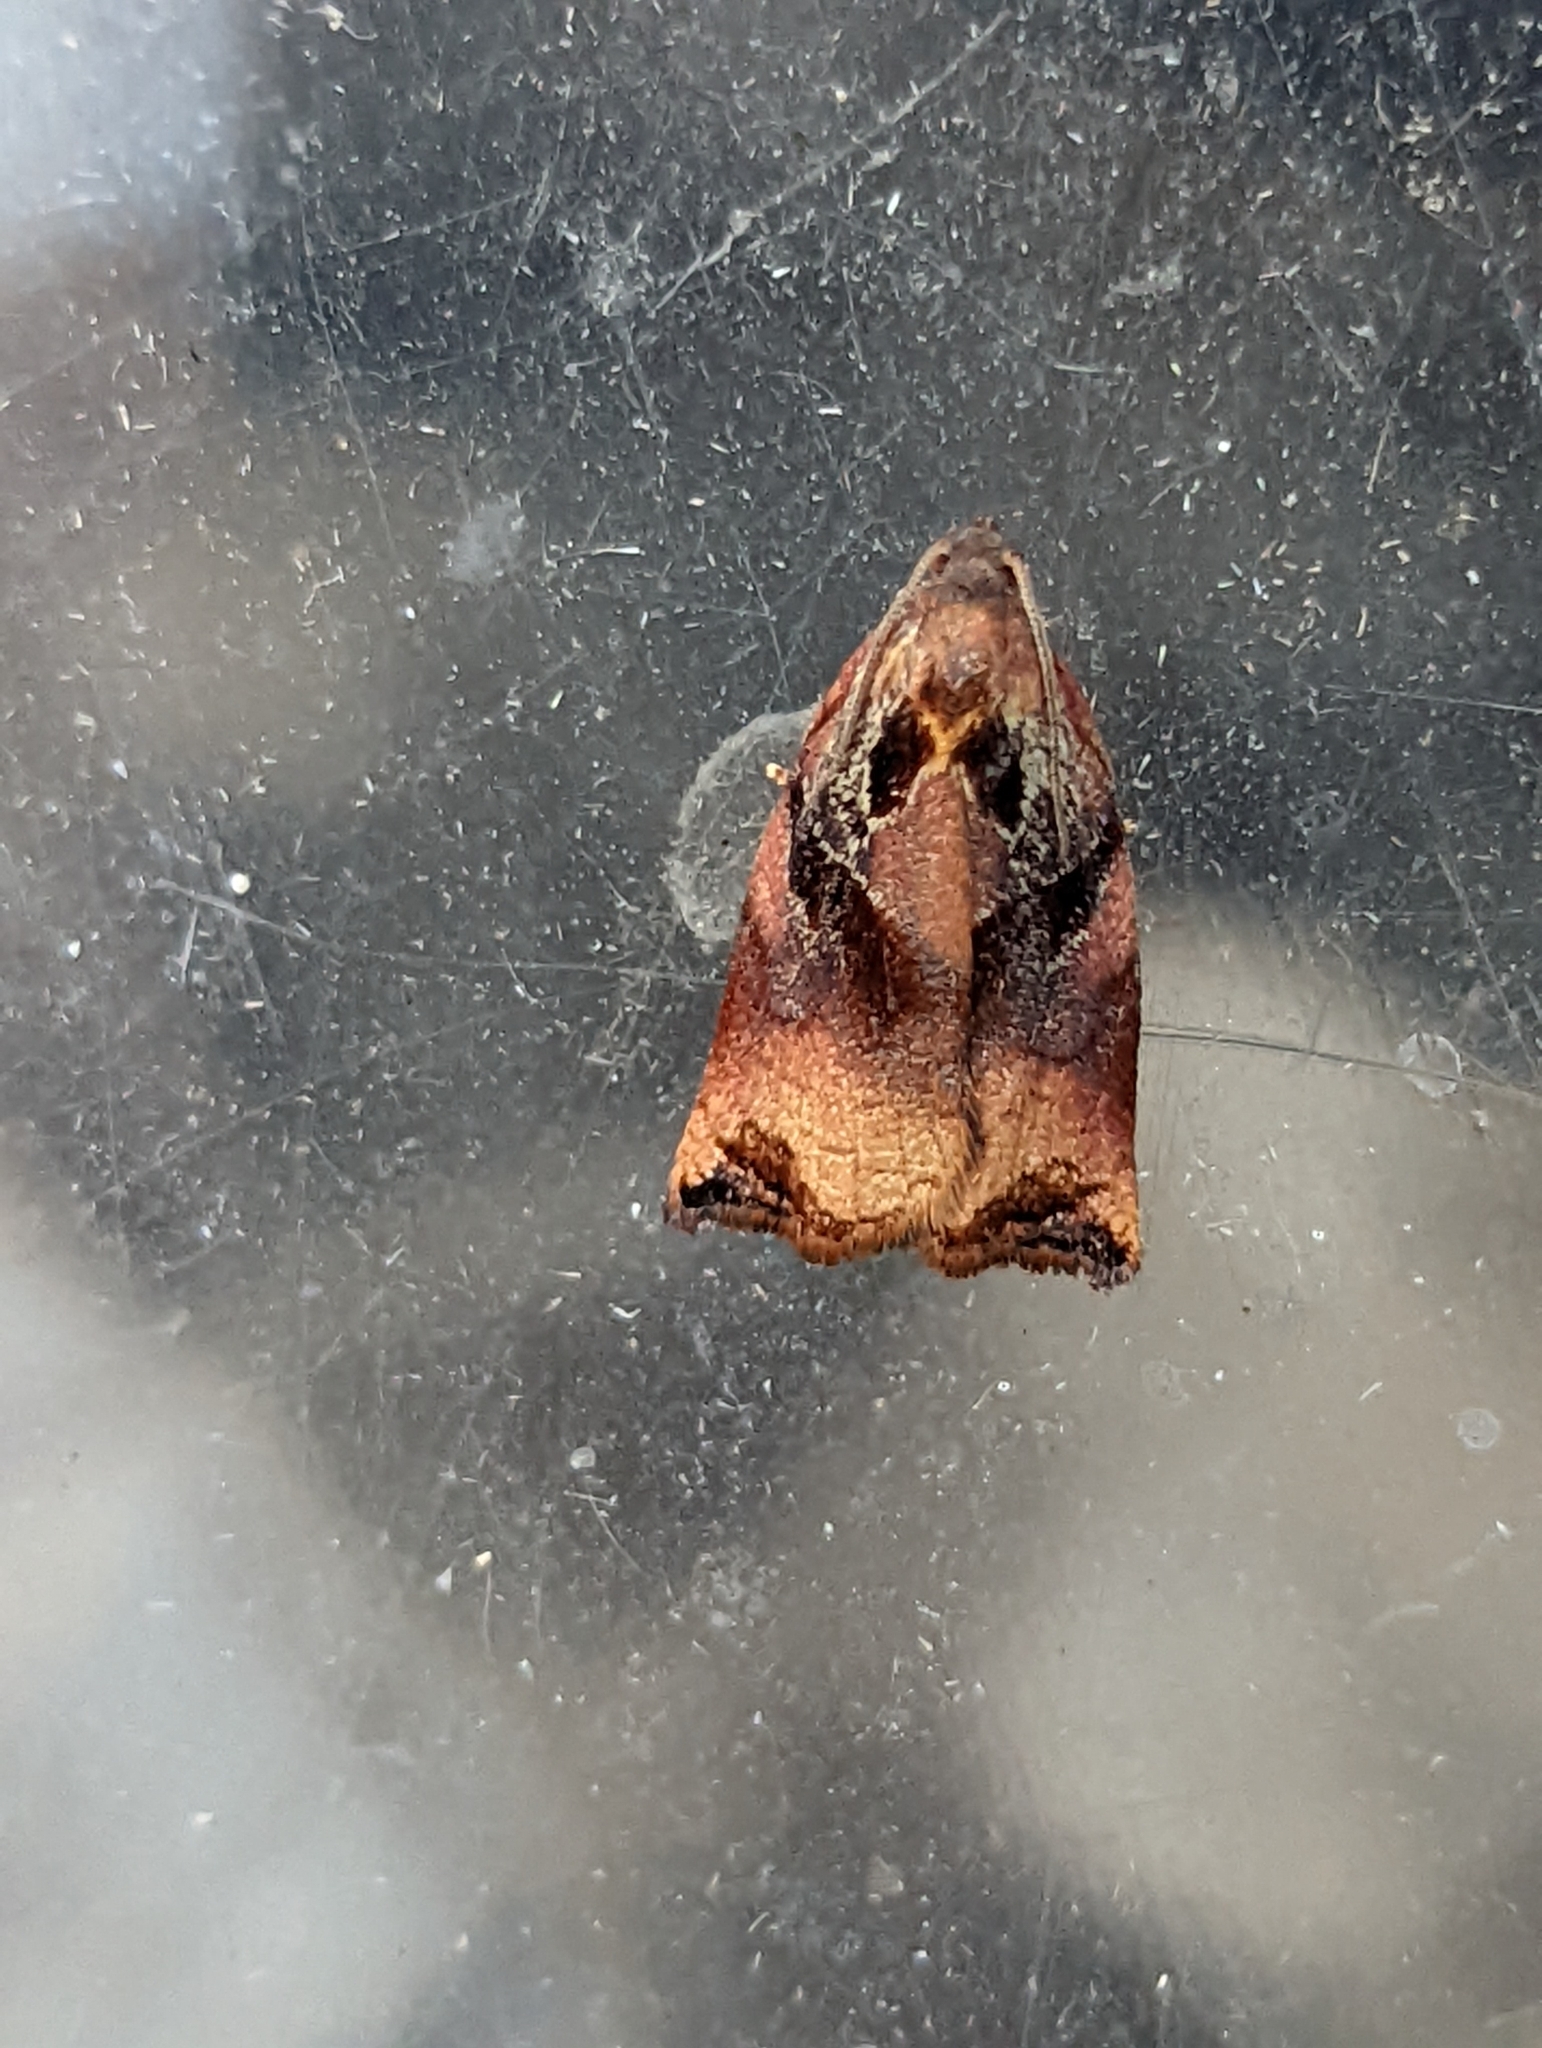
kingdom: Animalia
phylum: Arthropoda
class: Insecta
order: Lepidoptera
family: Tortricidae
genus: Archips
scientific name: Archips podana
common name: Large fruit-tree tortrix
